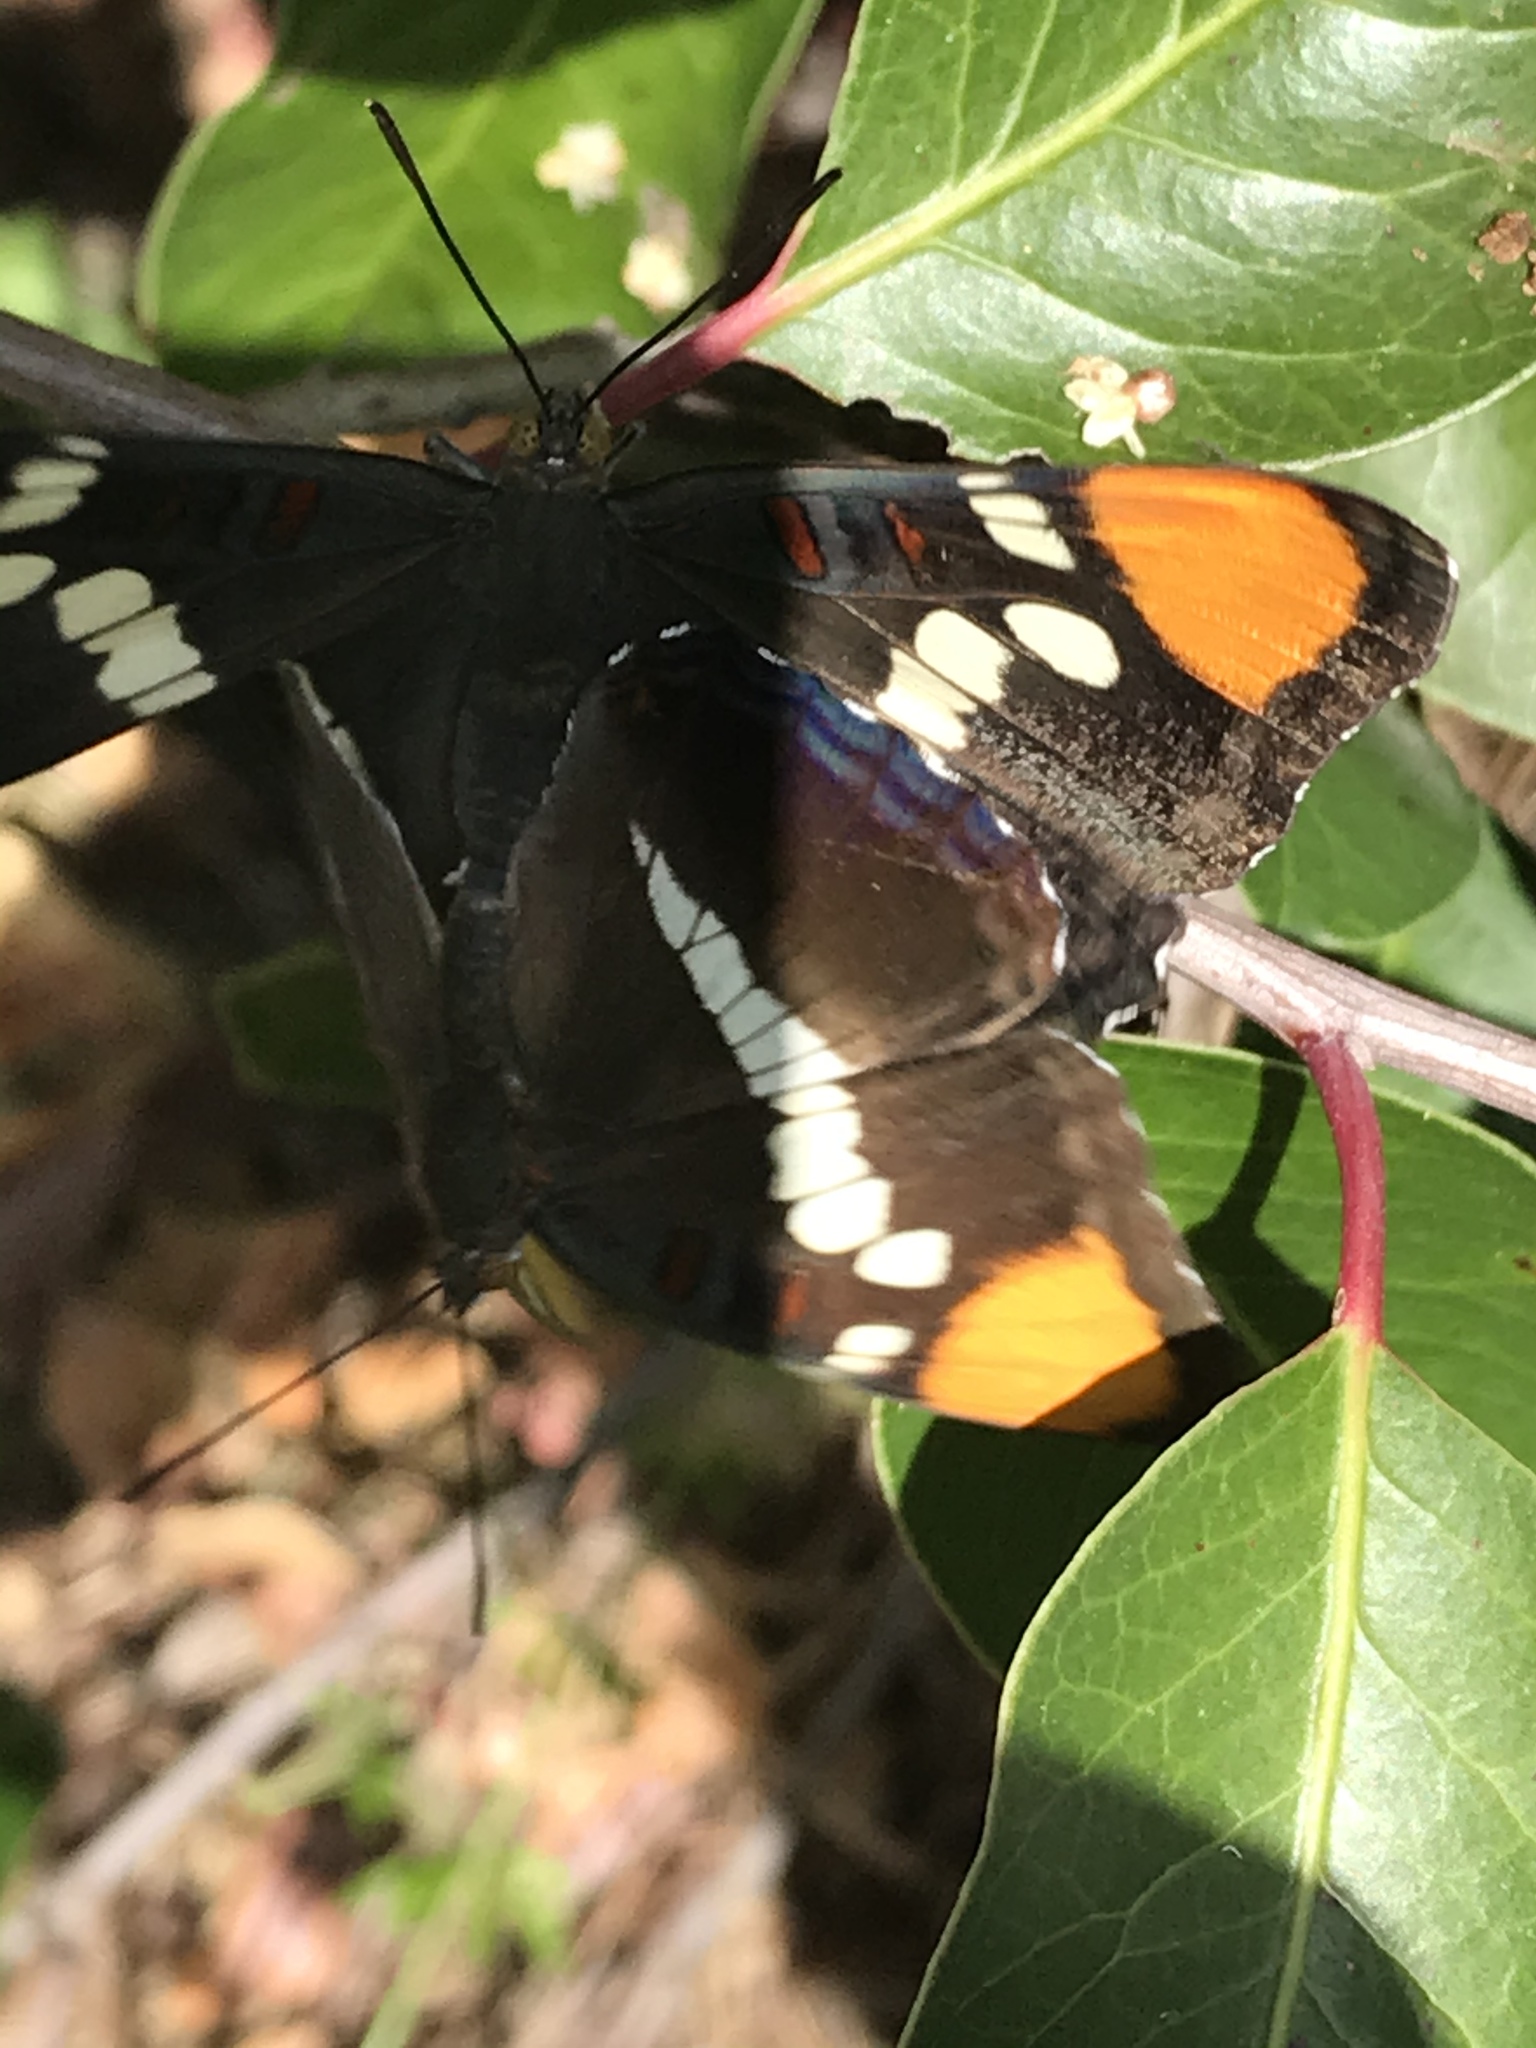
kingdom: Animalia
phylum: Arthropoda
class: Insecta
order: Lepidoptera
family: Nymphalidae
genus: Limenitis
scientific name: Limenitis bredowii
